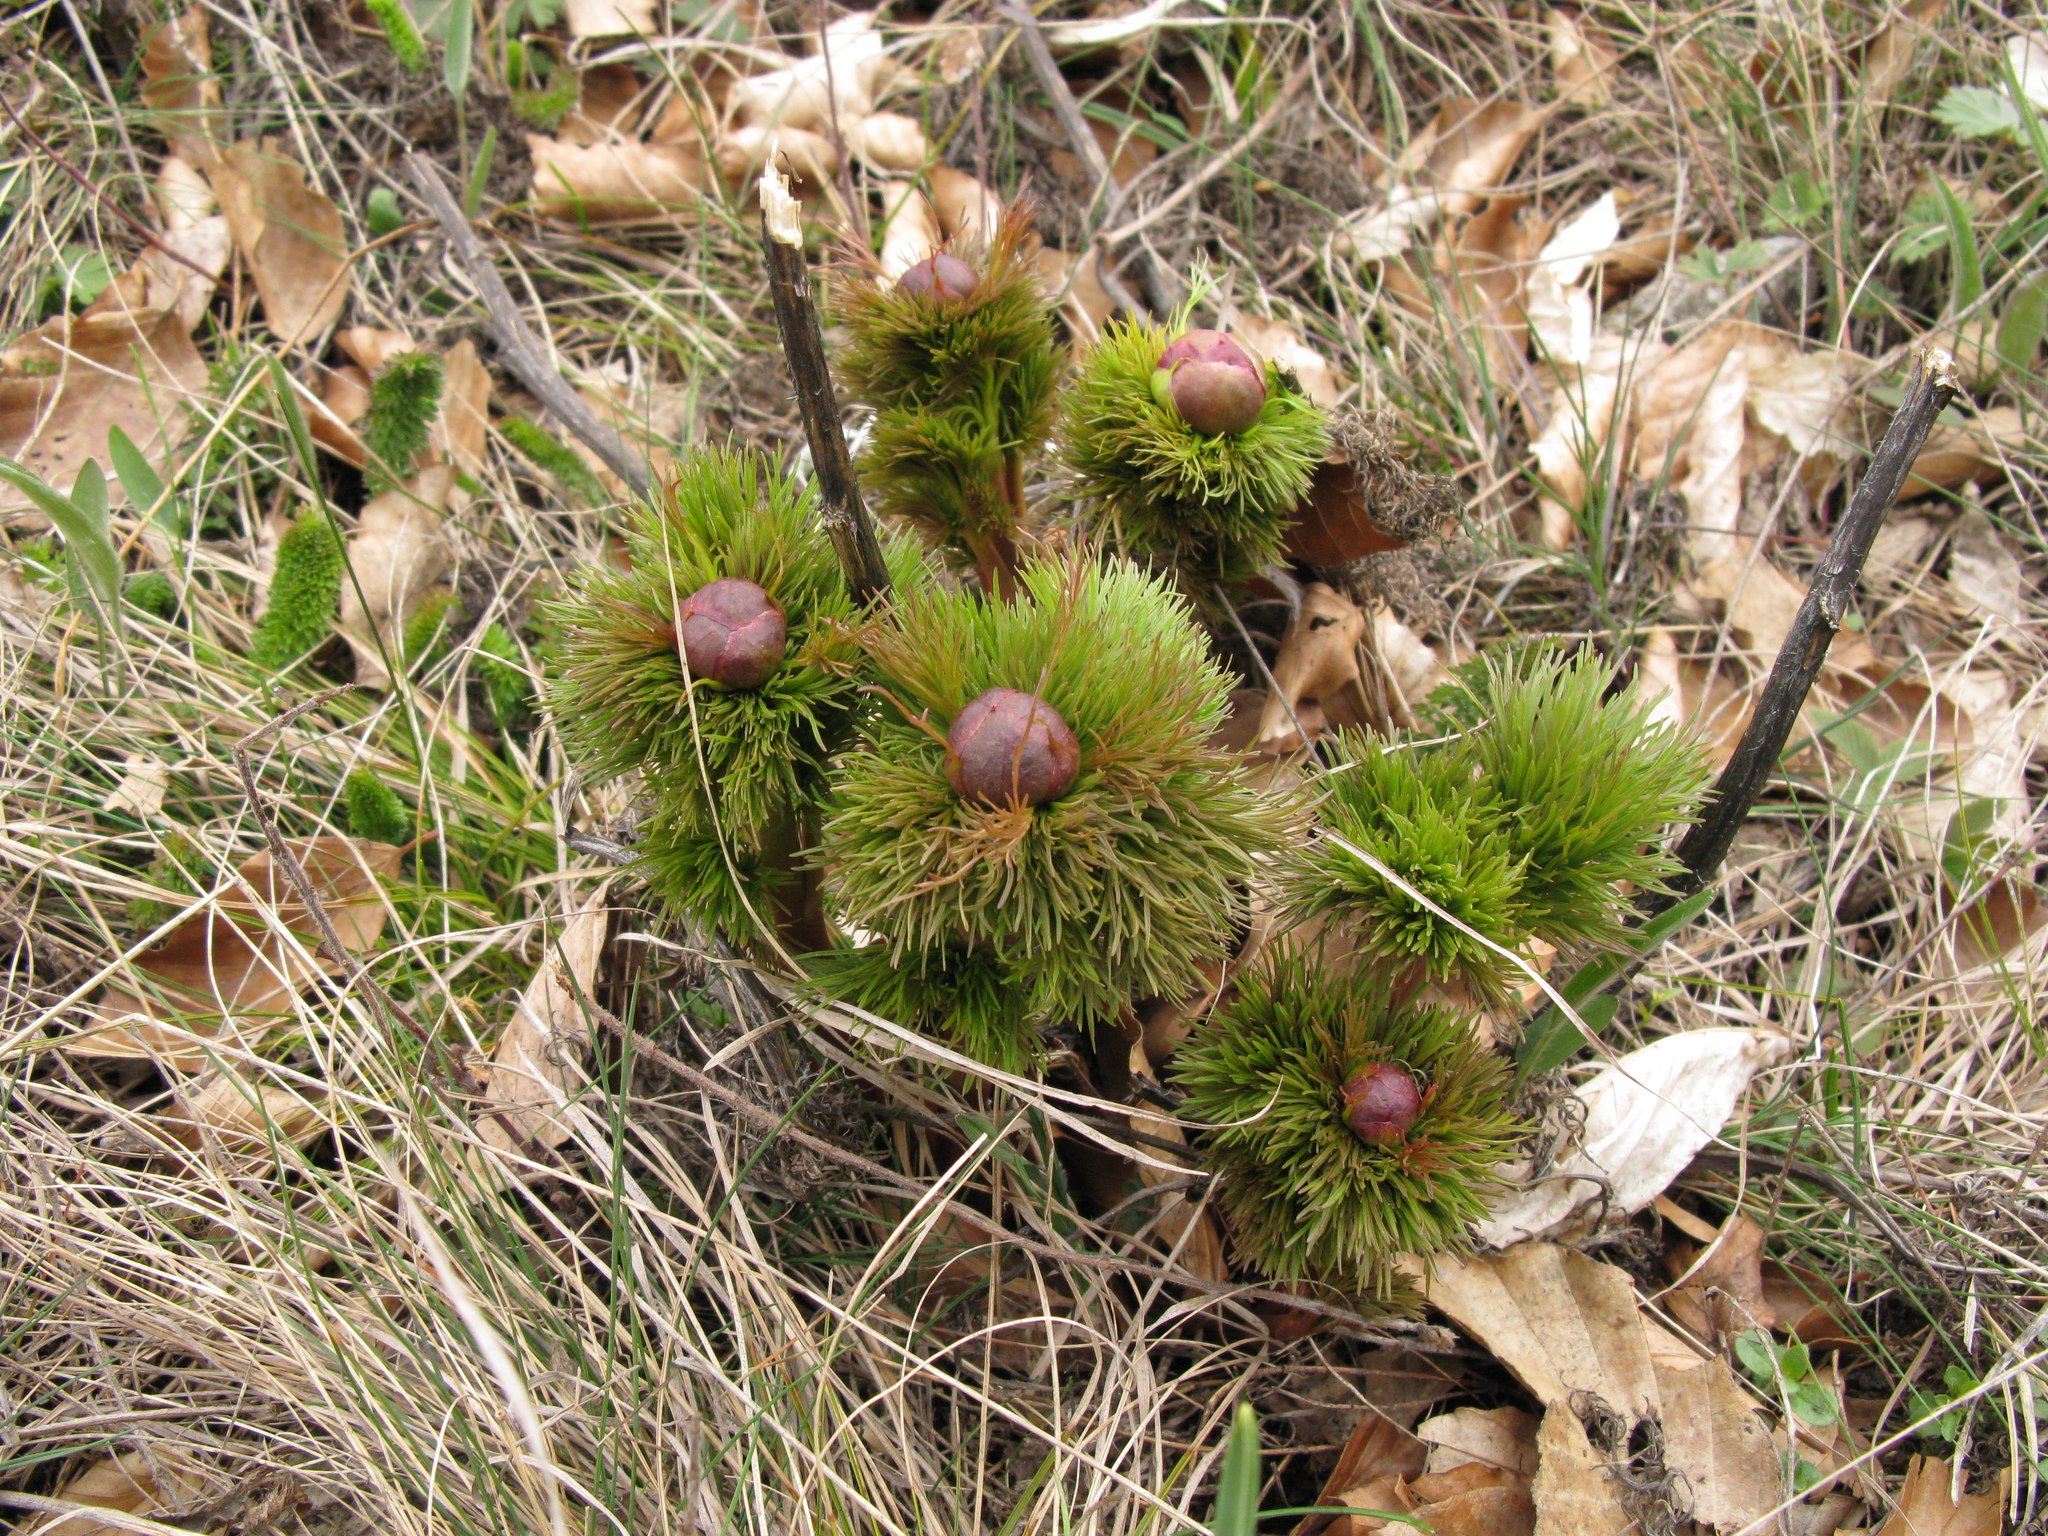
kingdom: Plantae
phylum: Tracheophyta
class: Magnoliopsida
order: Saxifragales
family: Paeoniaceae
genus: Paeonia
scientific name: Paeonia tenuifolia
